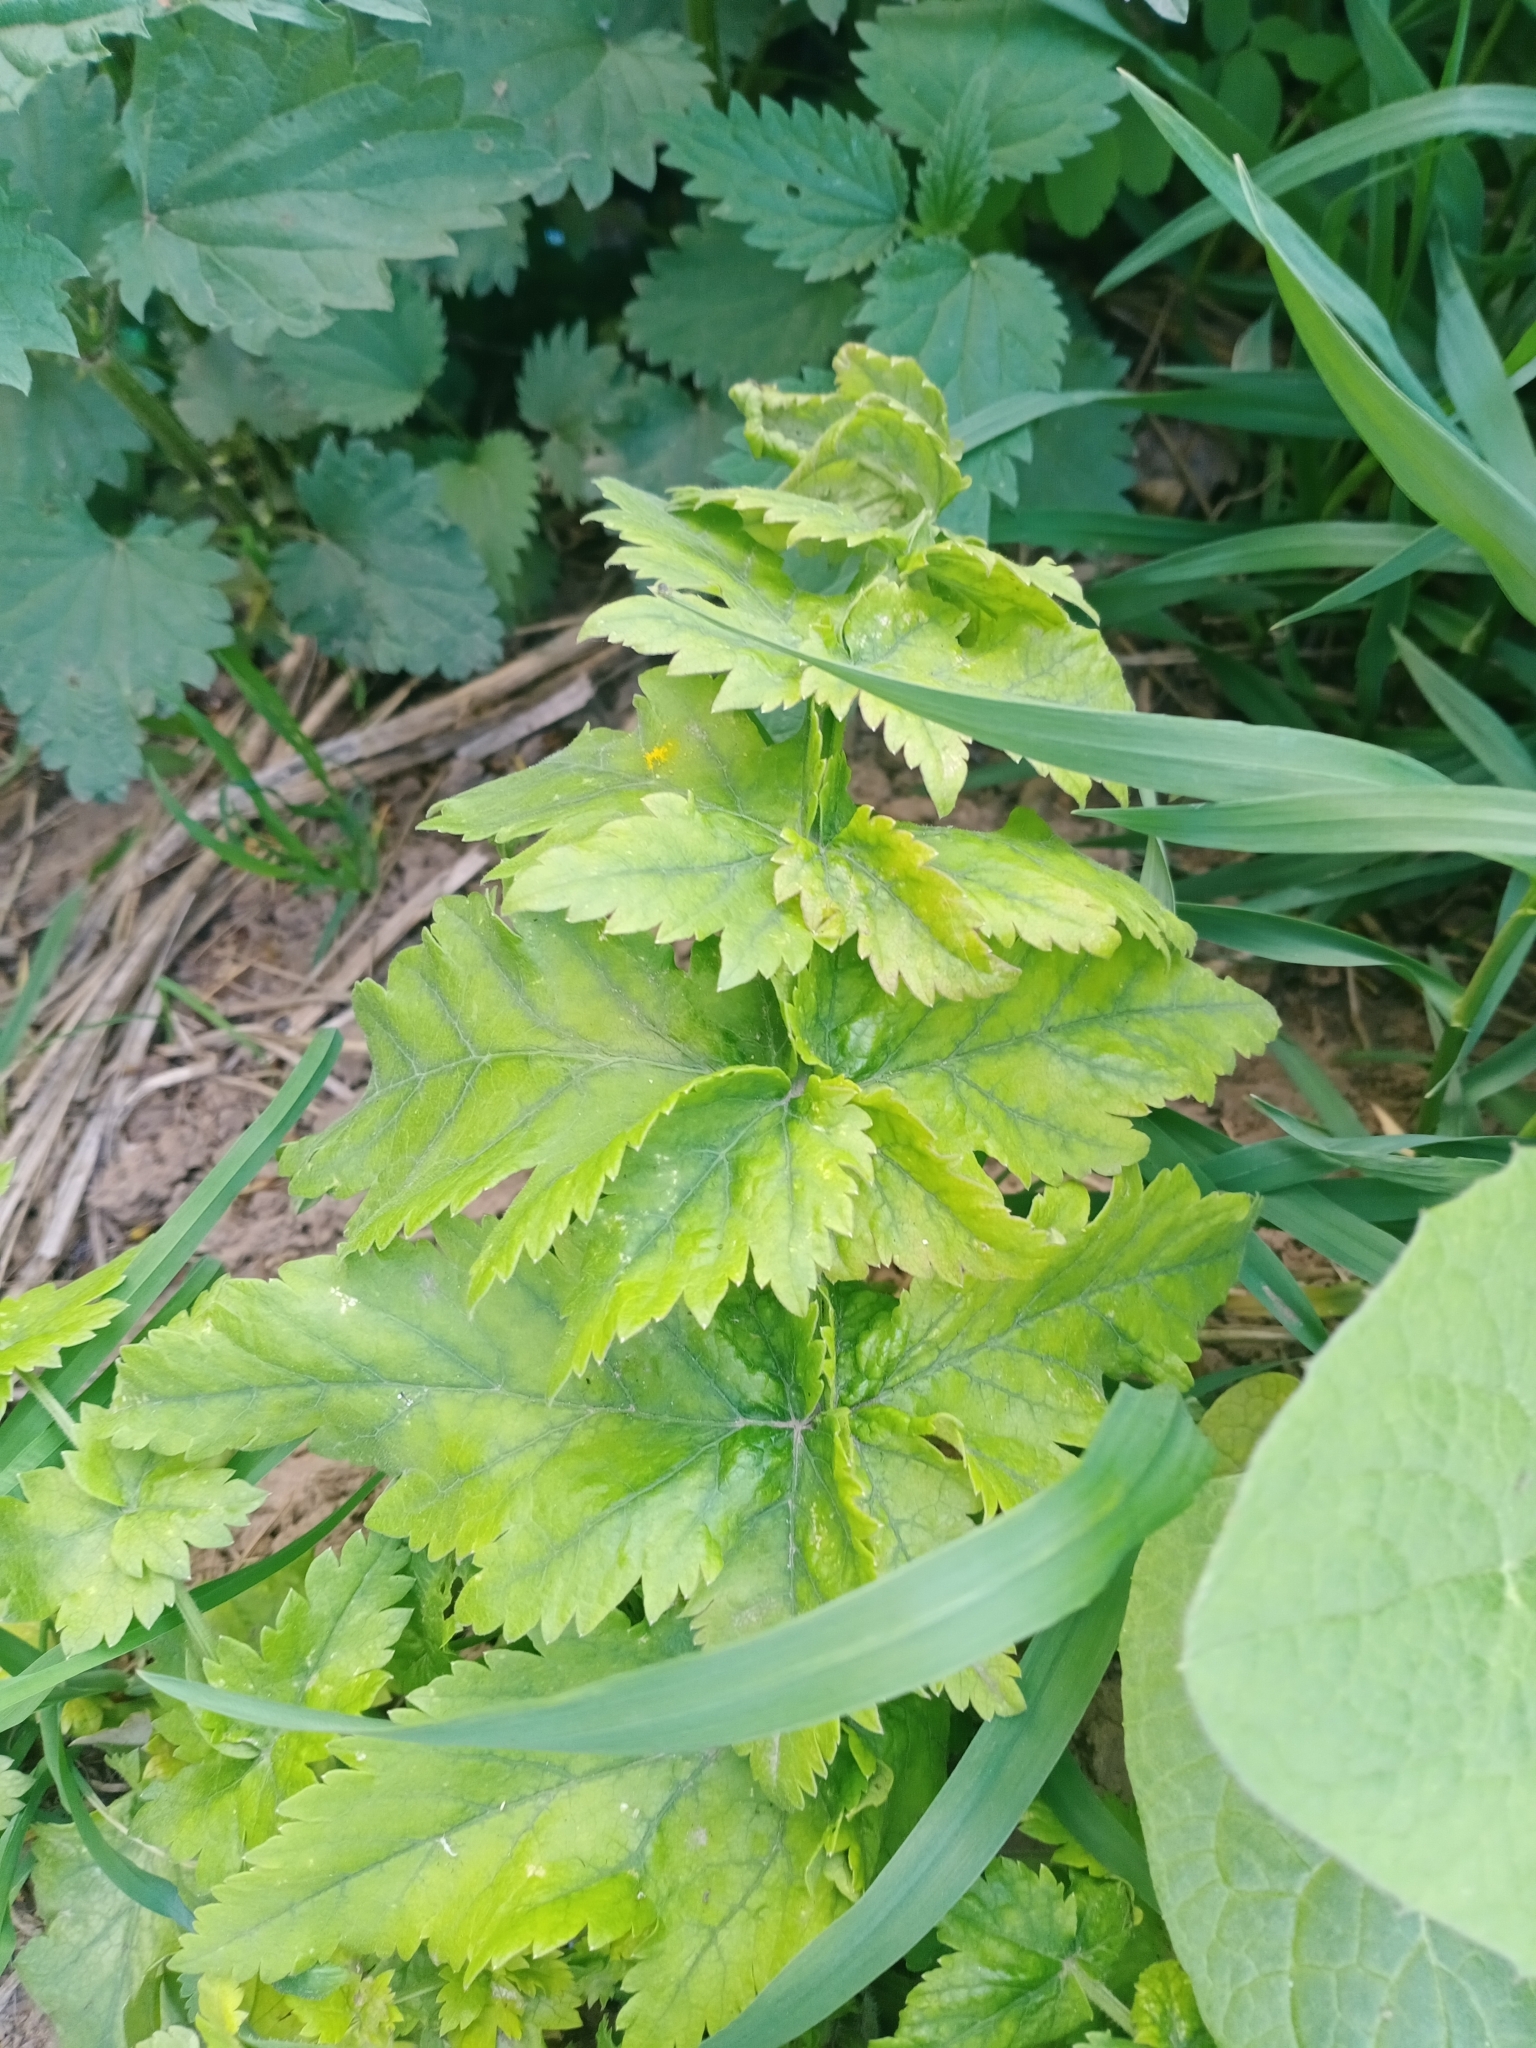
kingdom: Plantae
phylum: Tracheophyta
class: Magnoliopsida
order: Apiales
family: Apiaceae
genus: Pastinaca
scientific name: Pastinaca sativa
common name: Wild parsnip
